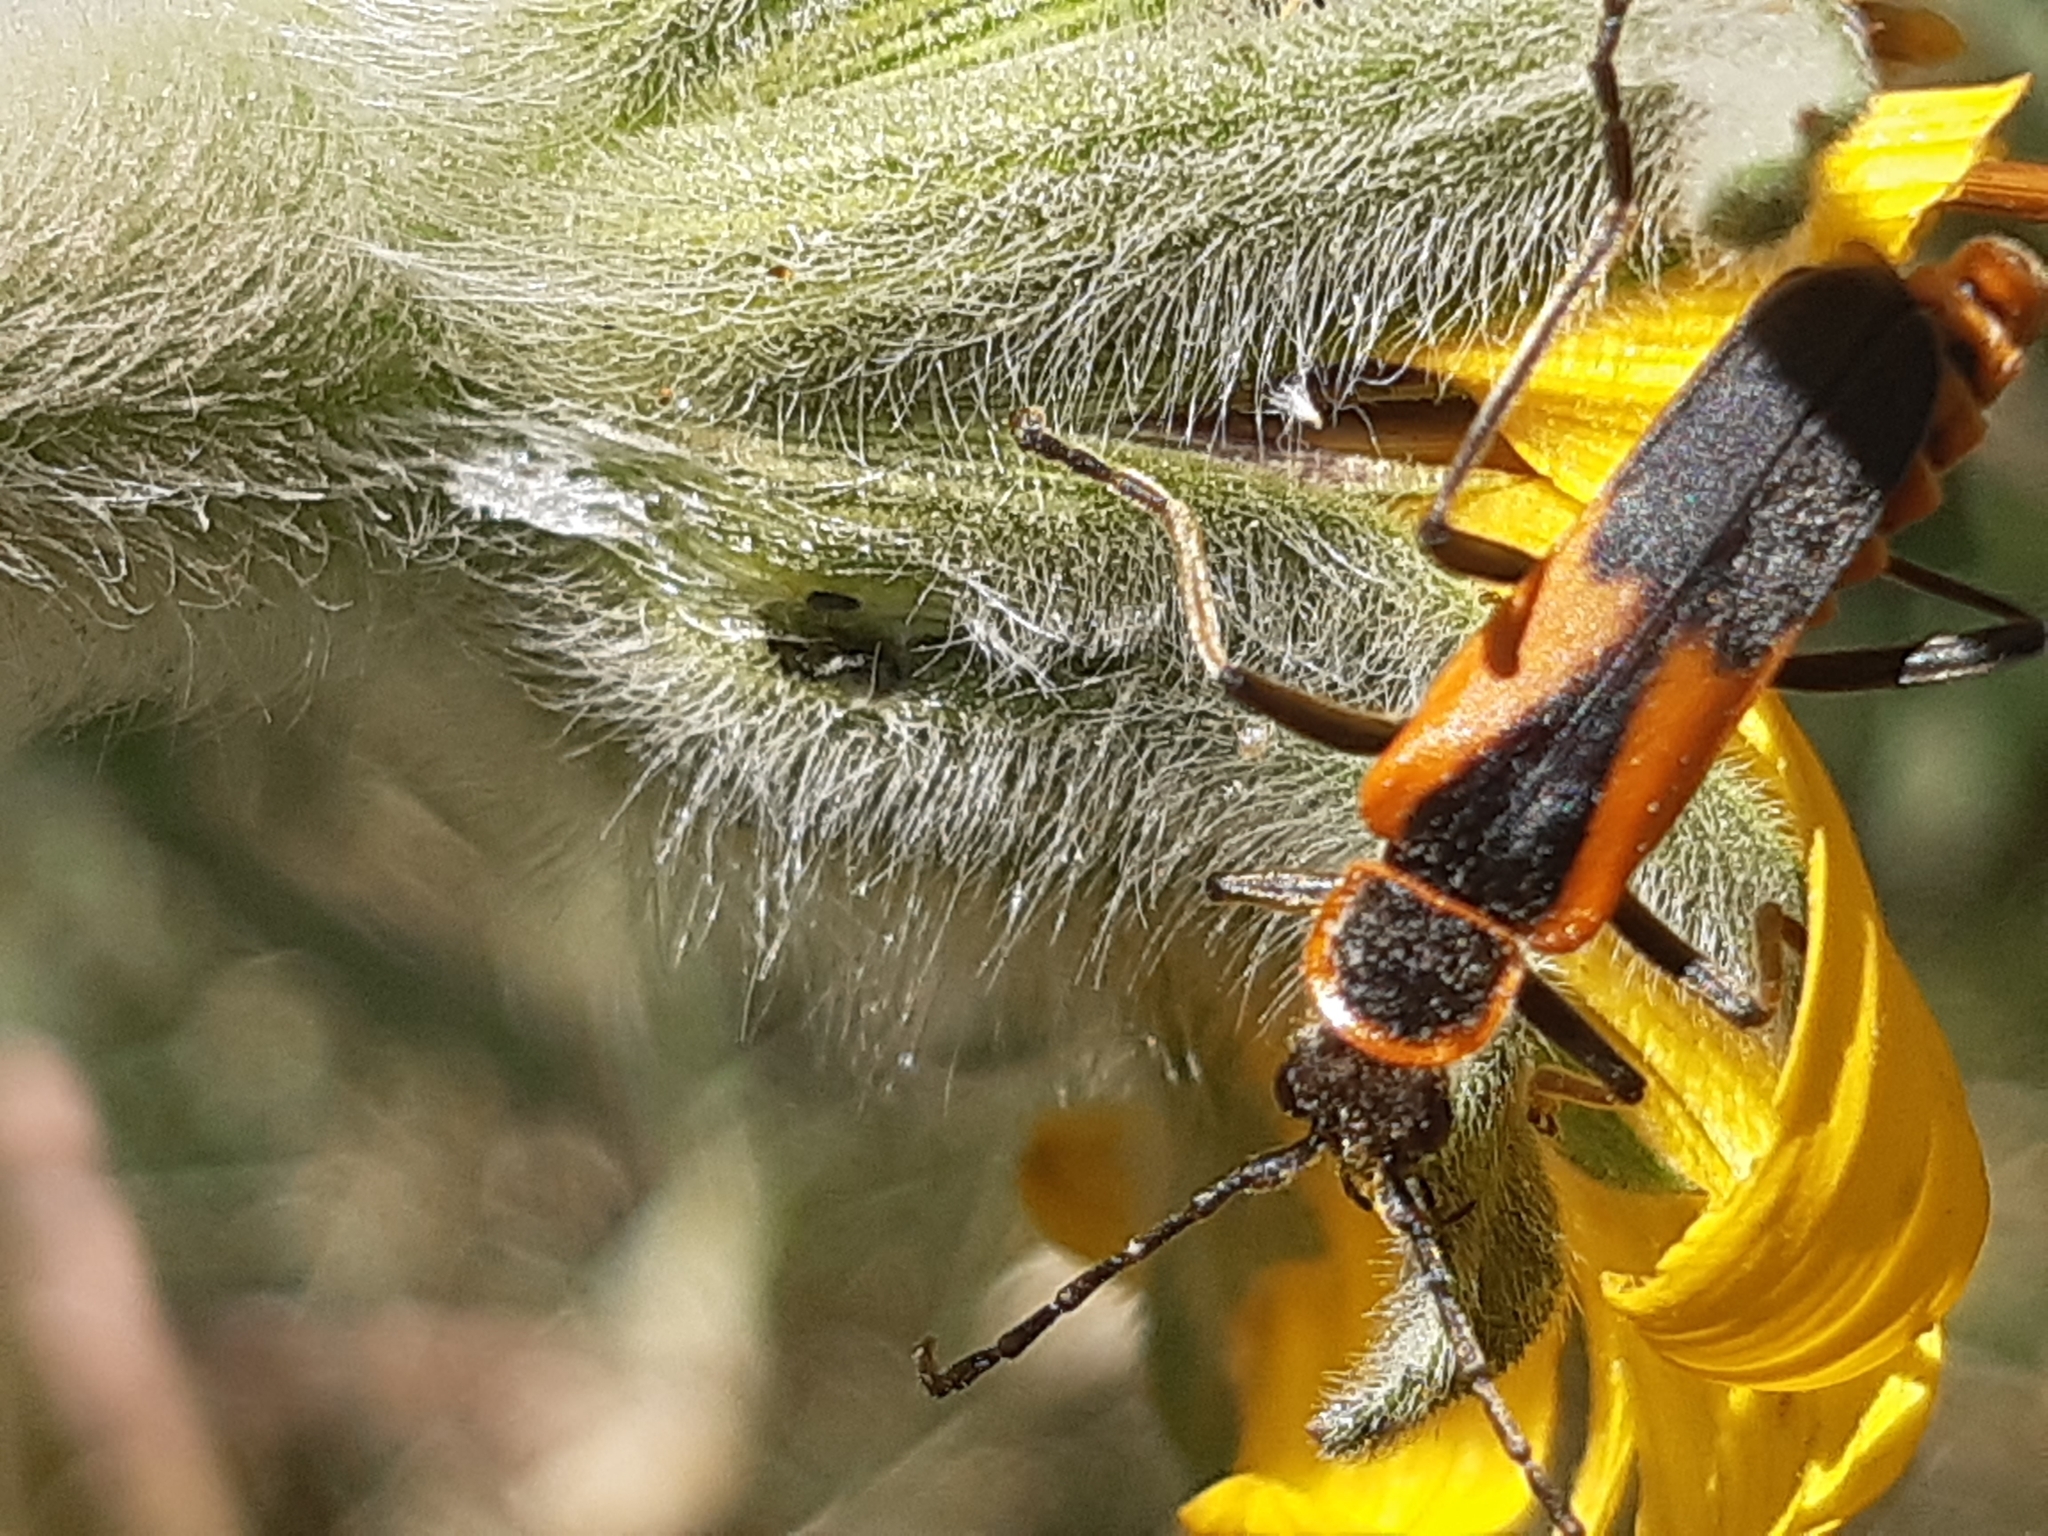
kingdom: Animalia
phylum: Arthropoda
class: Insecta
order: Coleoptera
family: Cantharidae
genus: Chauliognathus
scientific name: Chauliognathus limbicollis
